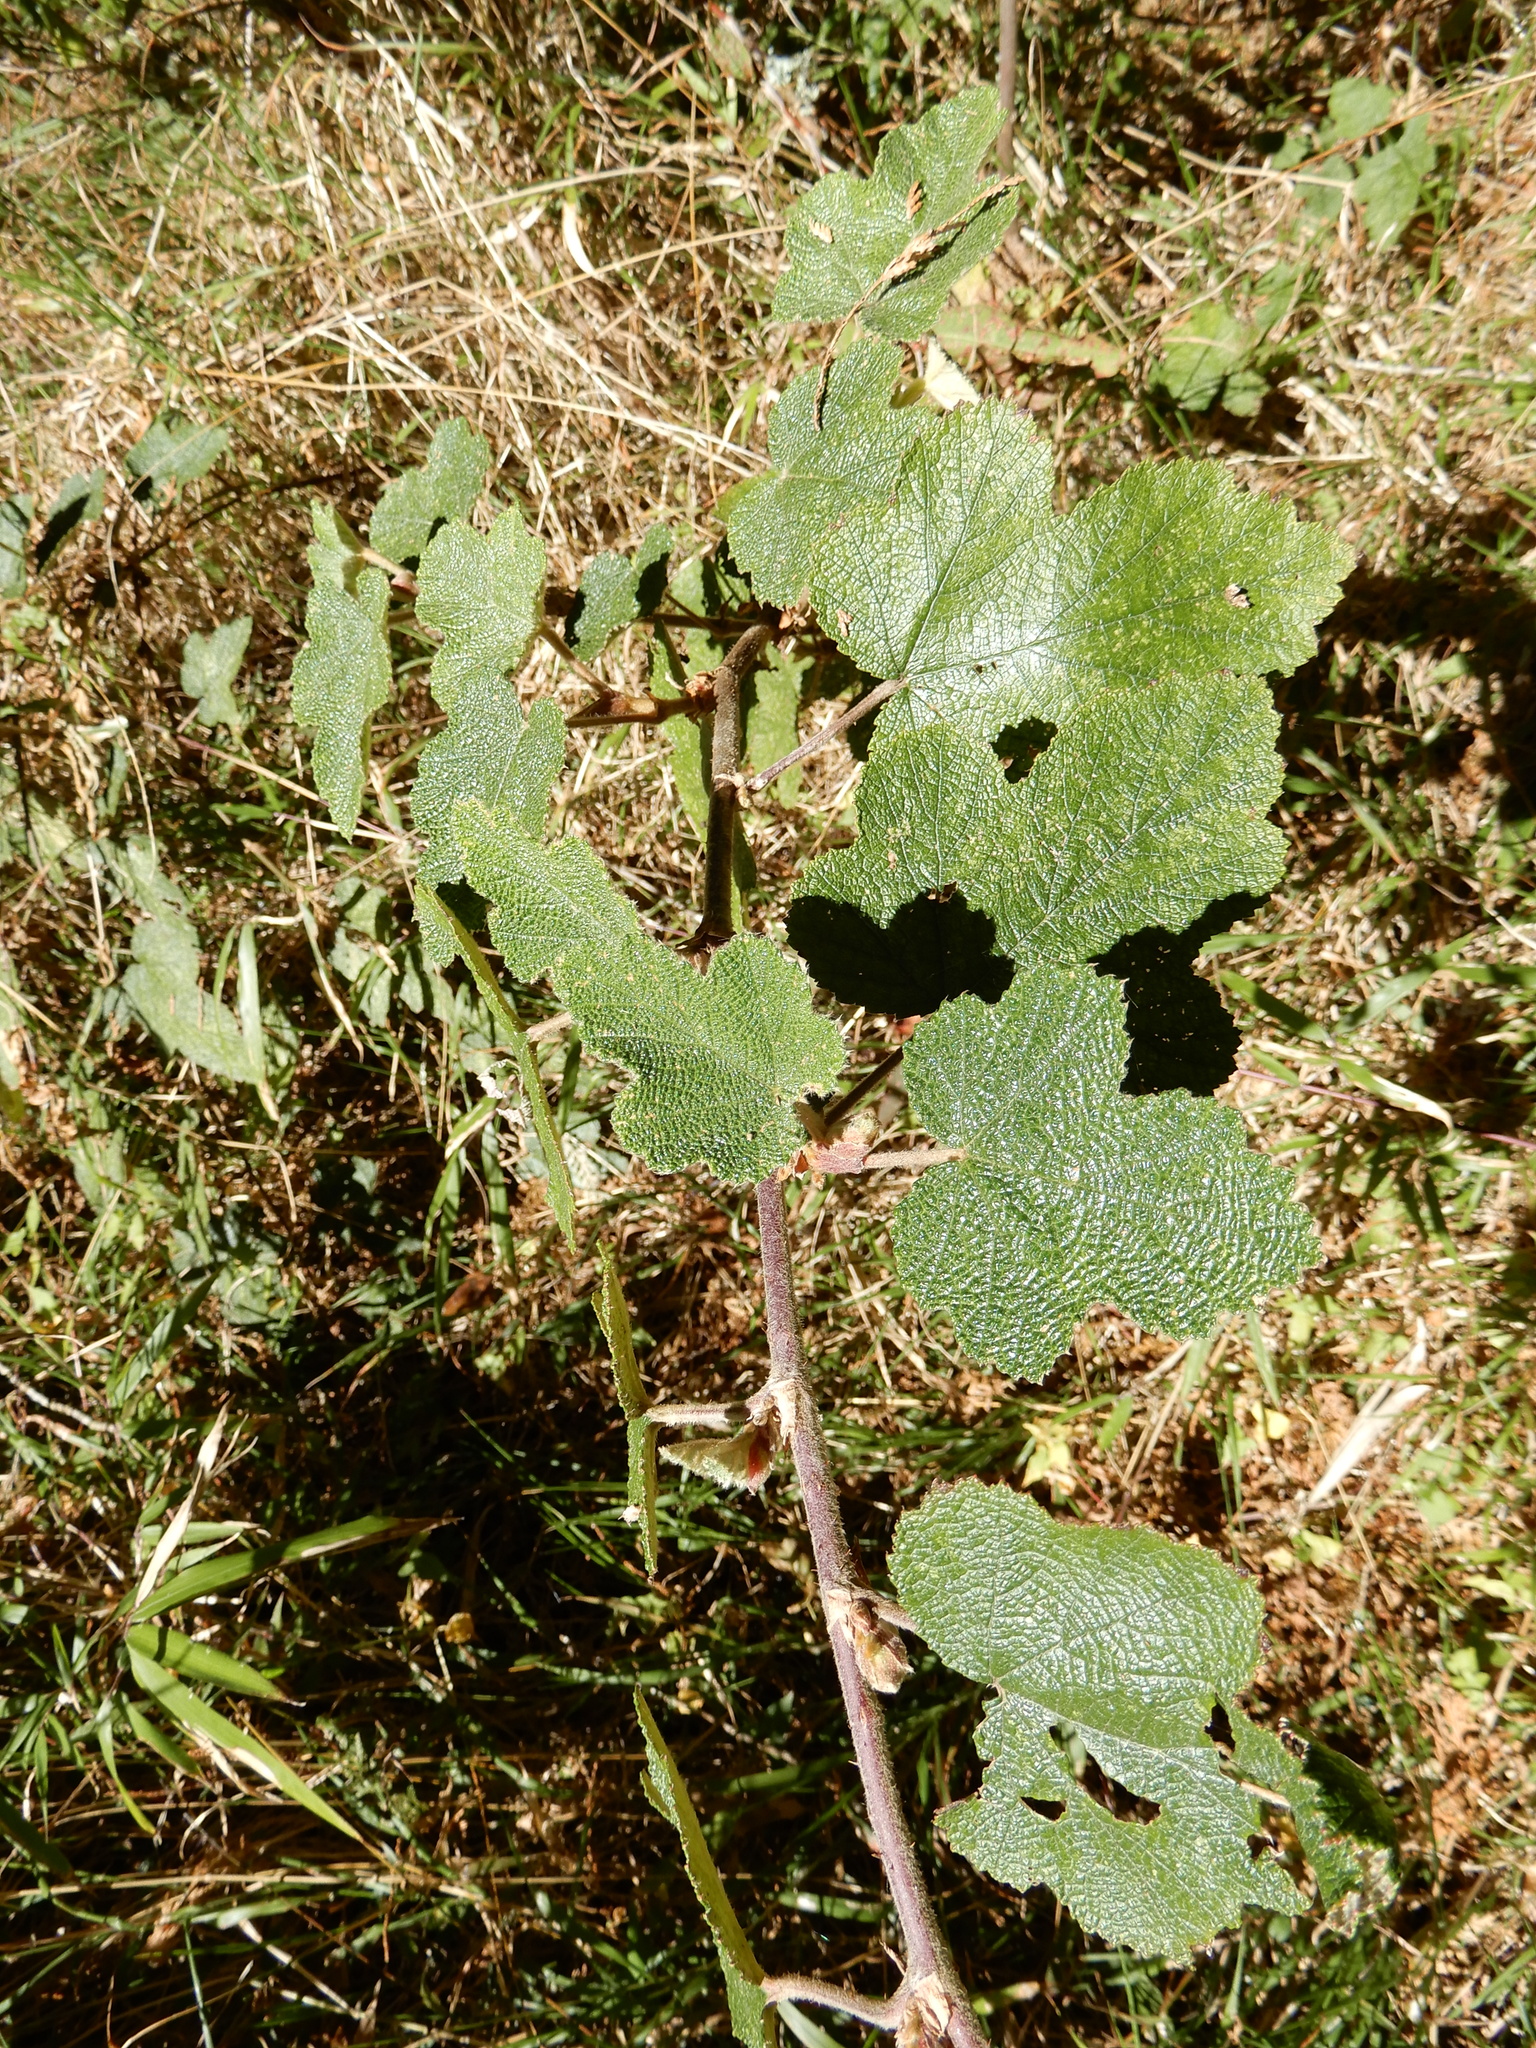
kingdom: Plantae
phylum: Tracheophyta
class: Magnoliopsida
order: Rosales
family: Rosaceae
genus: Rubus
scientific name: Rubus formosensis
